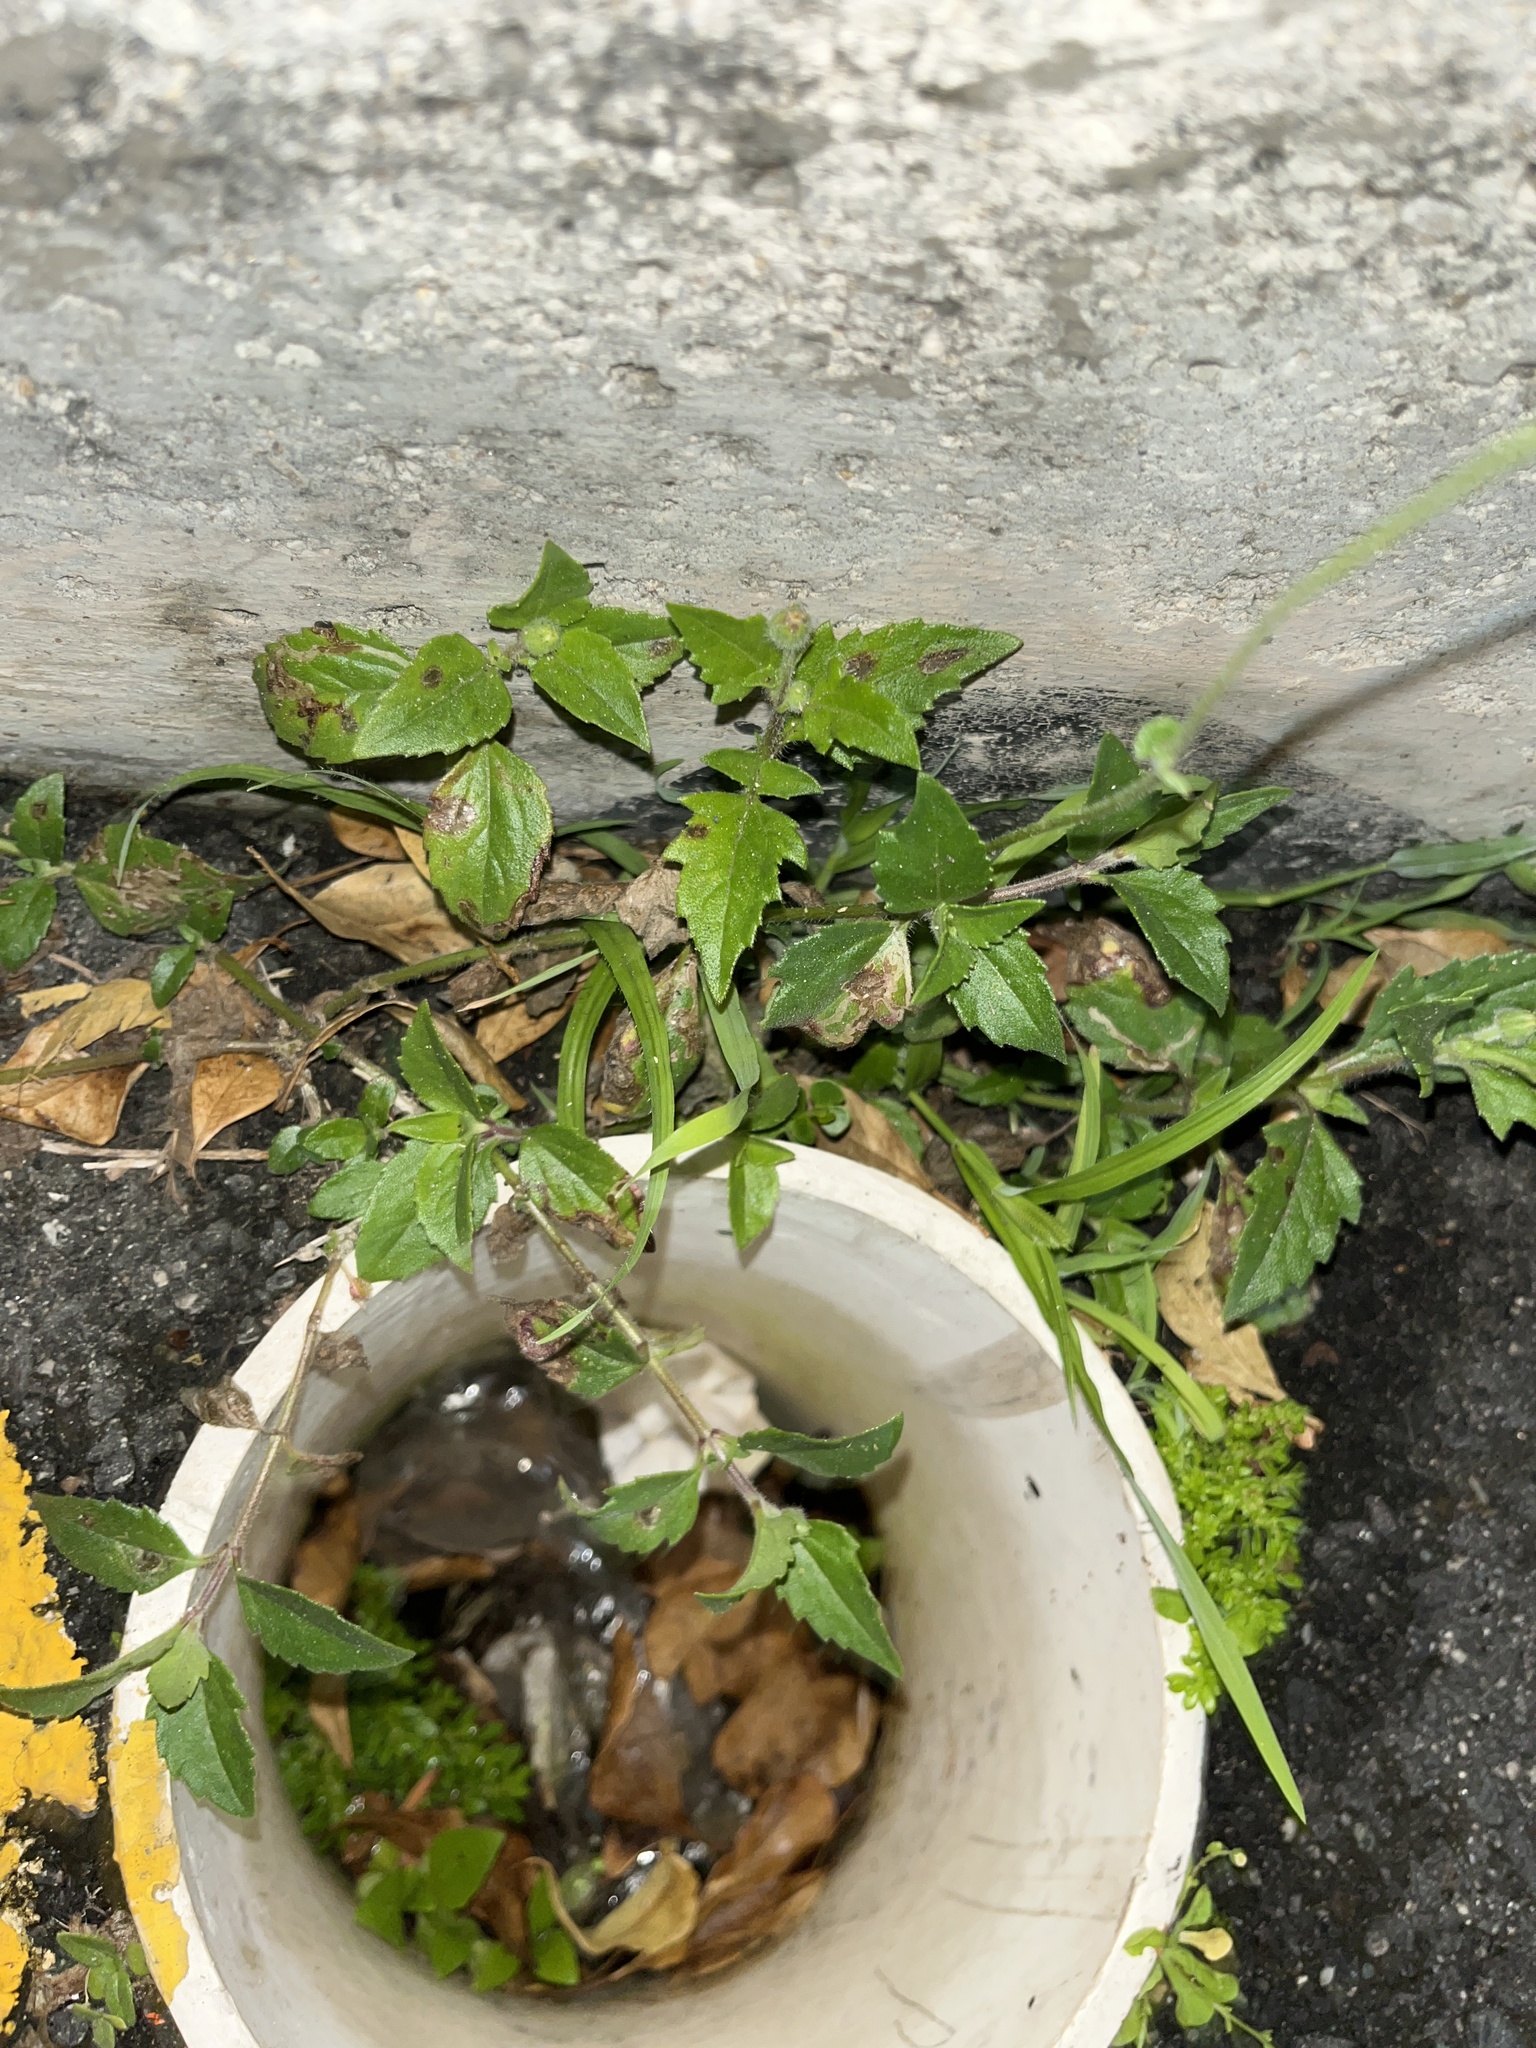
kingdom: Plantae
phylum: Tracheophyta
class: Magnoliopsida
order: Asterales
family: Asteraceae
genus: Tridax
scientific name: Tridax procumbens
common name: Coatbuttons
